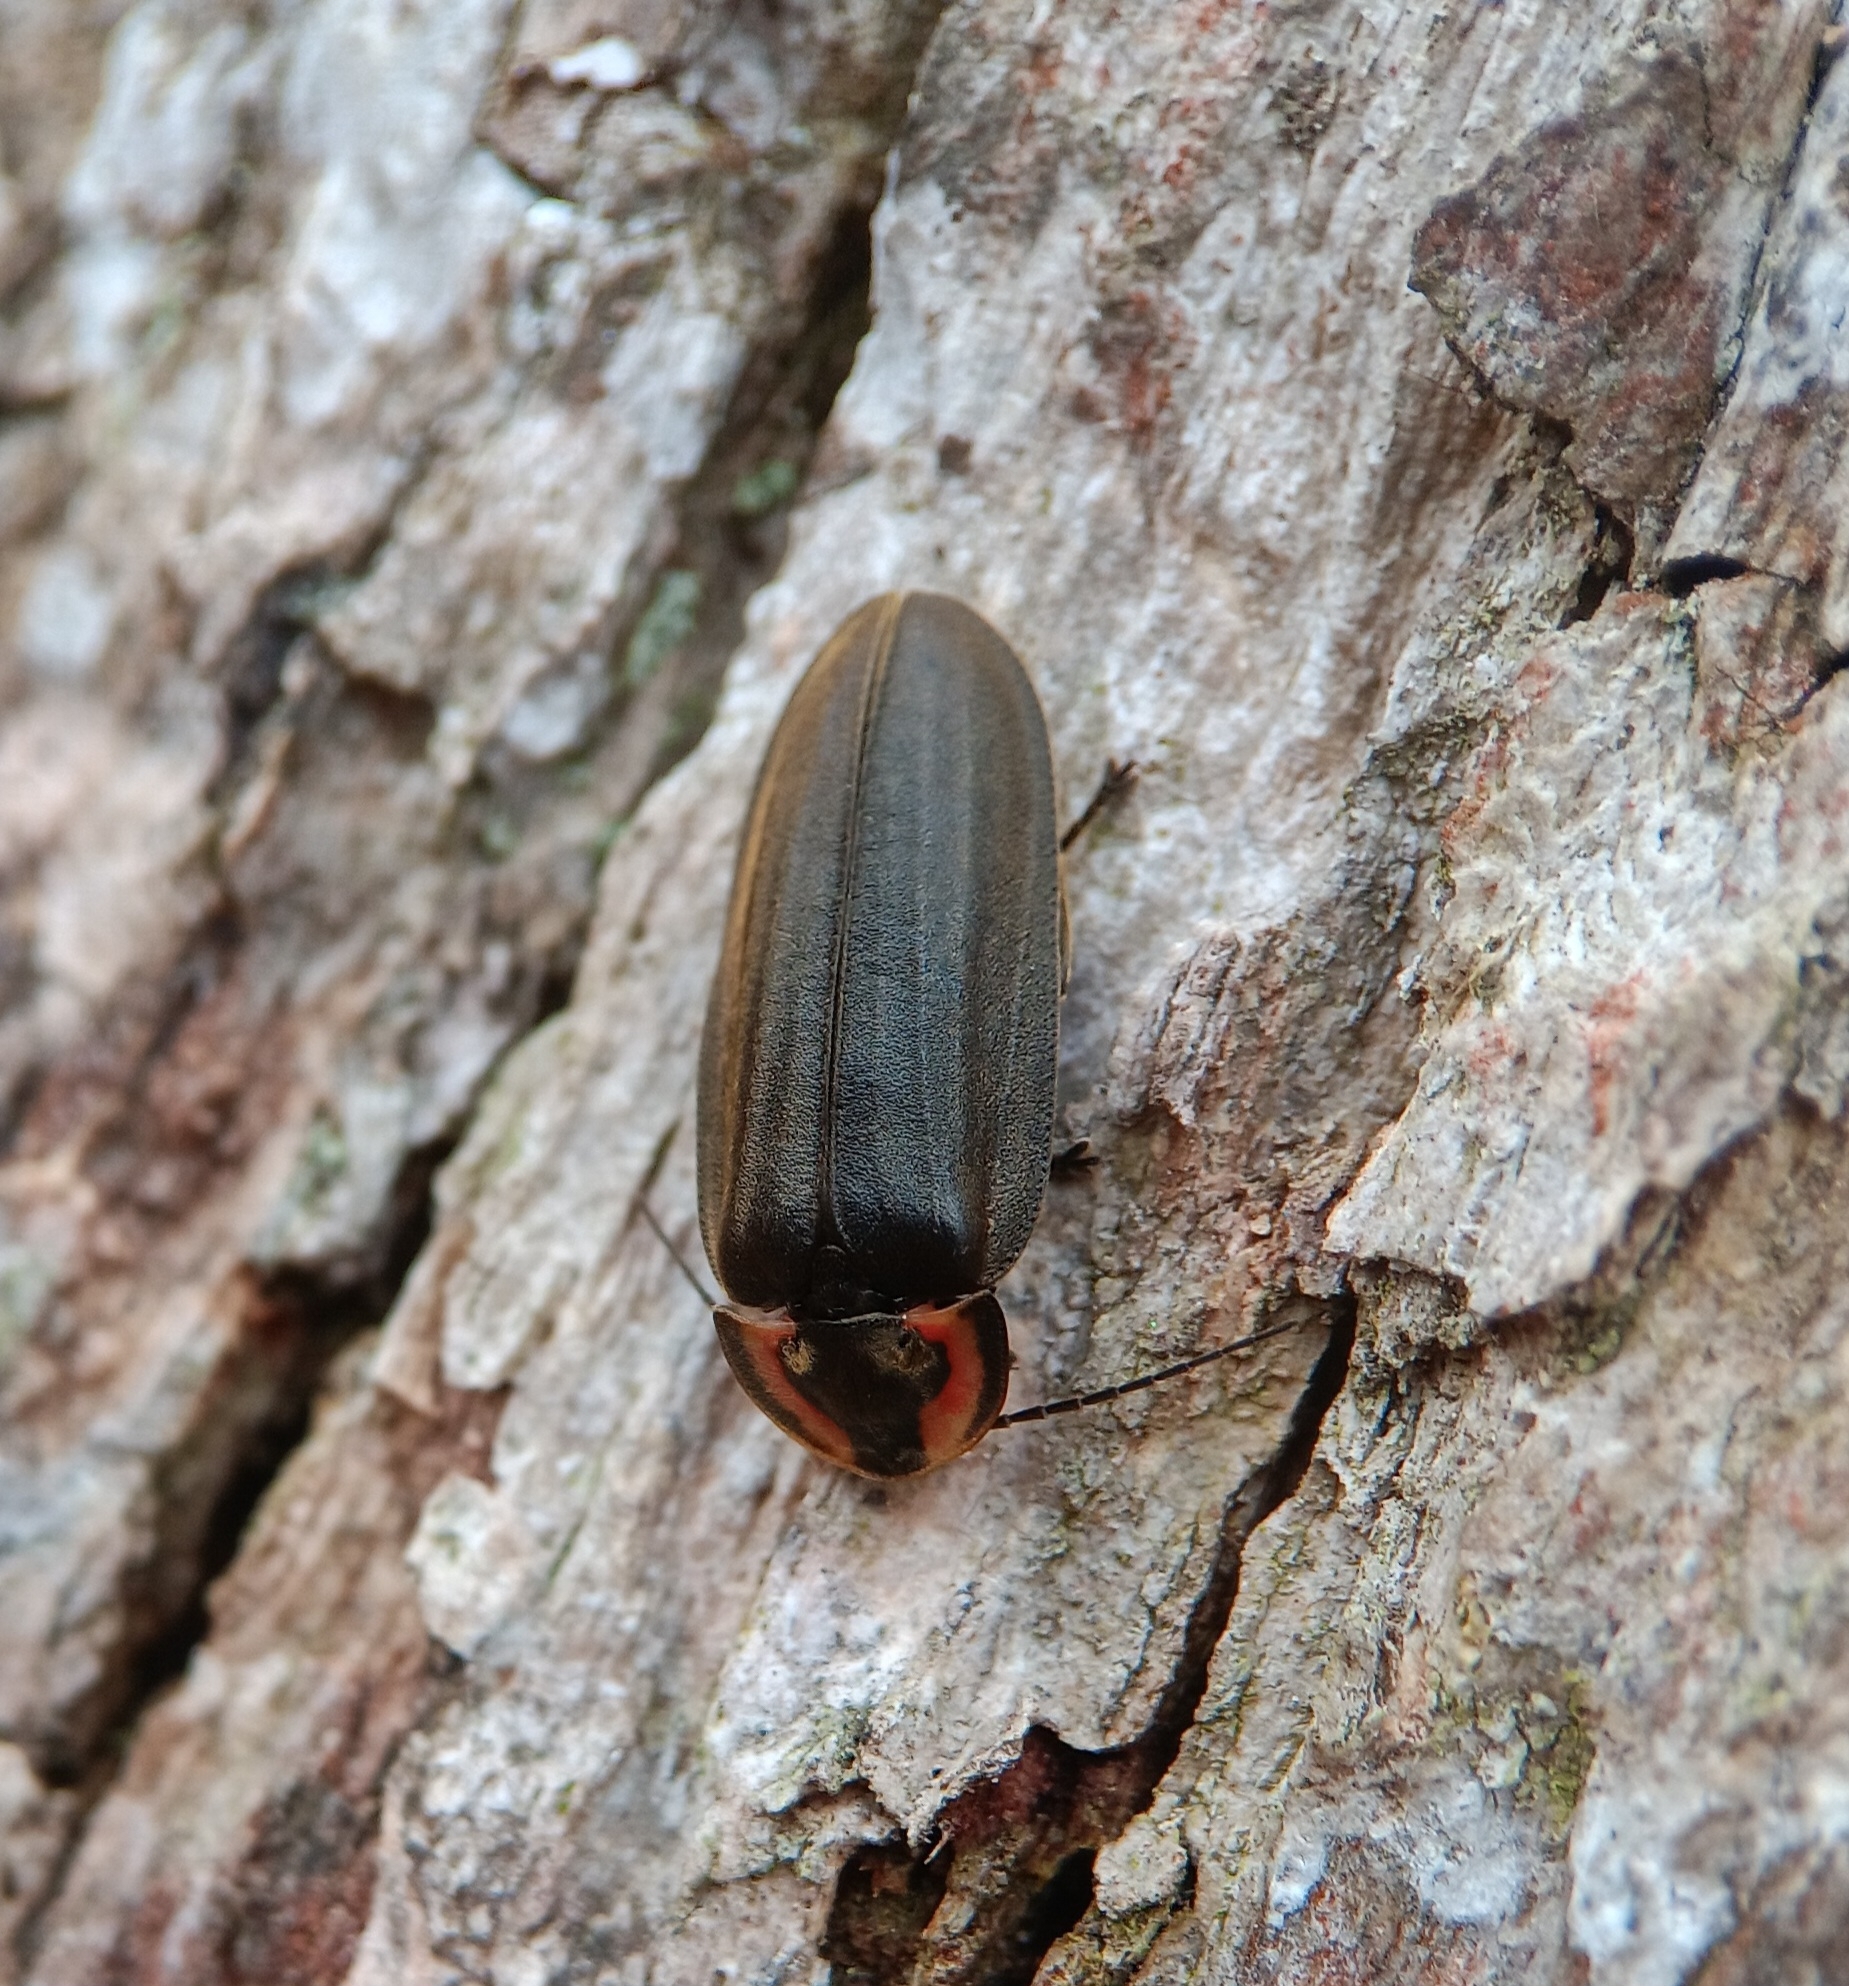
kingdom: Animalia
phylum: Arthropoda
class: Insecta
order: Coleoptera
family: Lampyridae
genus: Photinus
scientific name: Photinus corrusca
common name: Winter firefly
